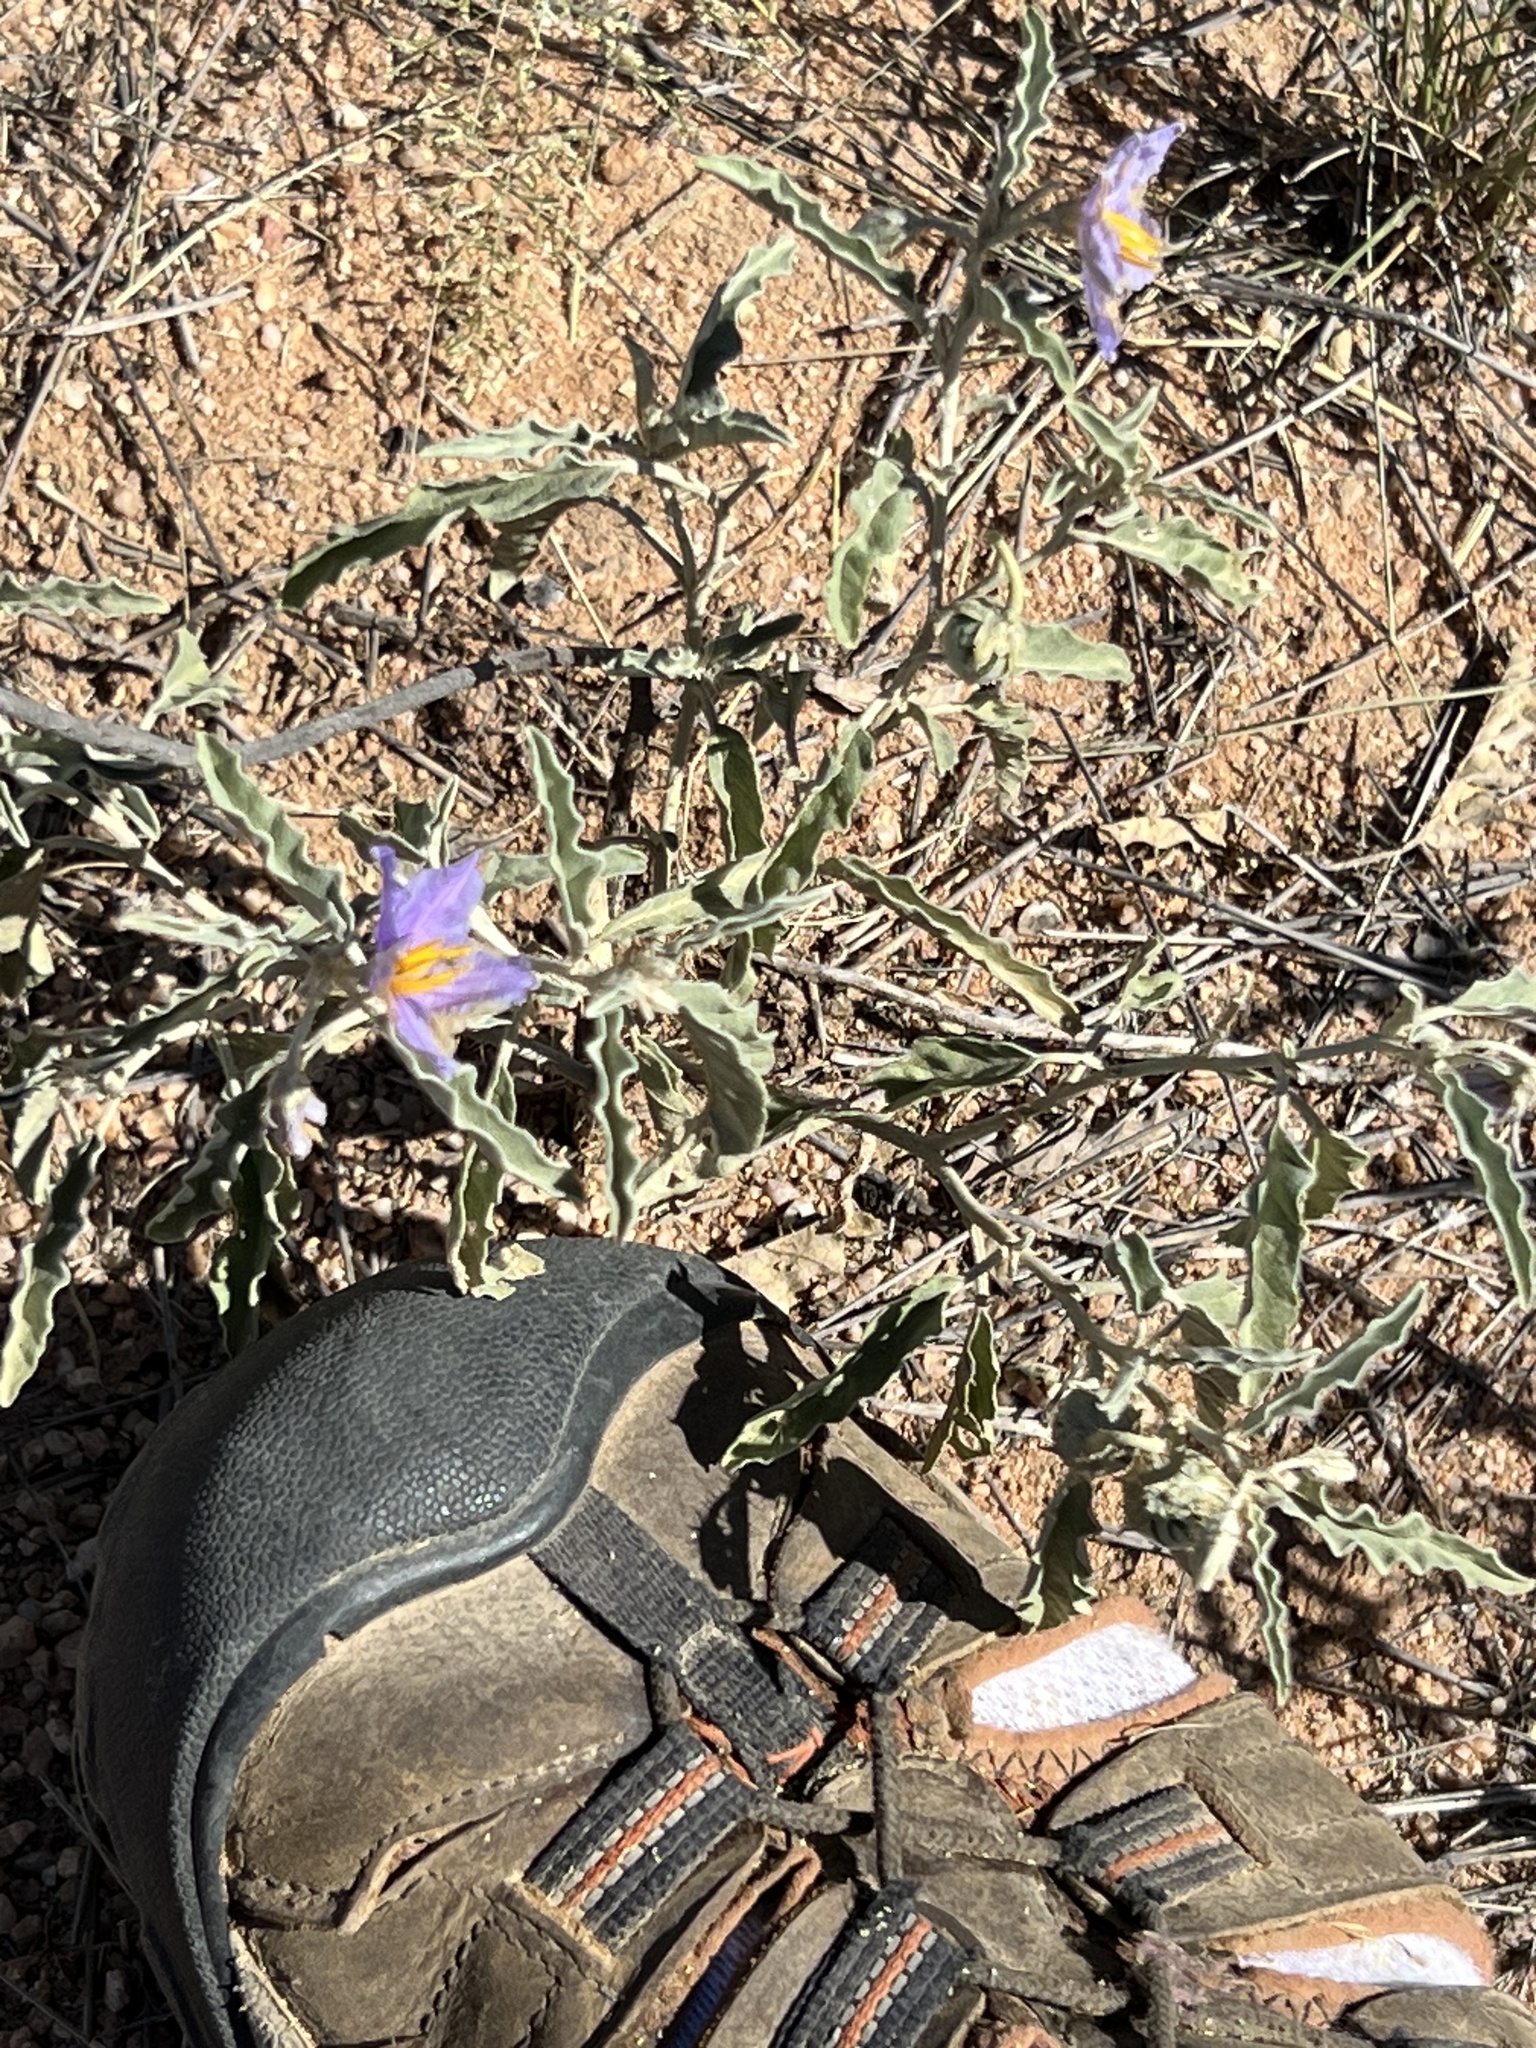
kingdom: Plantae
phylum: Tracheophyta
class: Magnoliopsida
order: Solanales
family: Solanaceae
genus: Solanum
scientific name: Solanum elaeagnifolium
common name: Silverleaf nightshade
